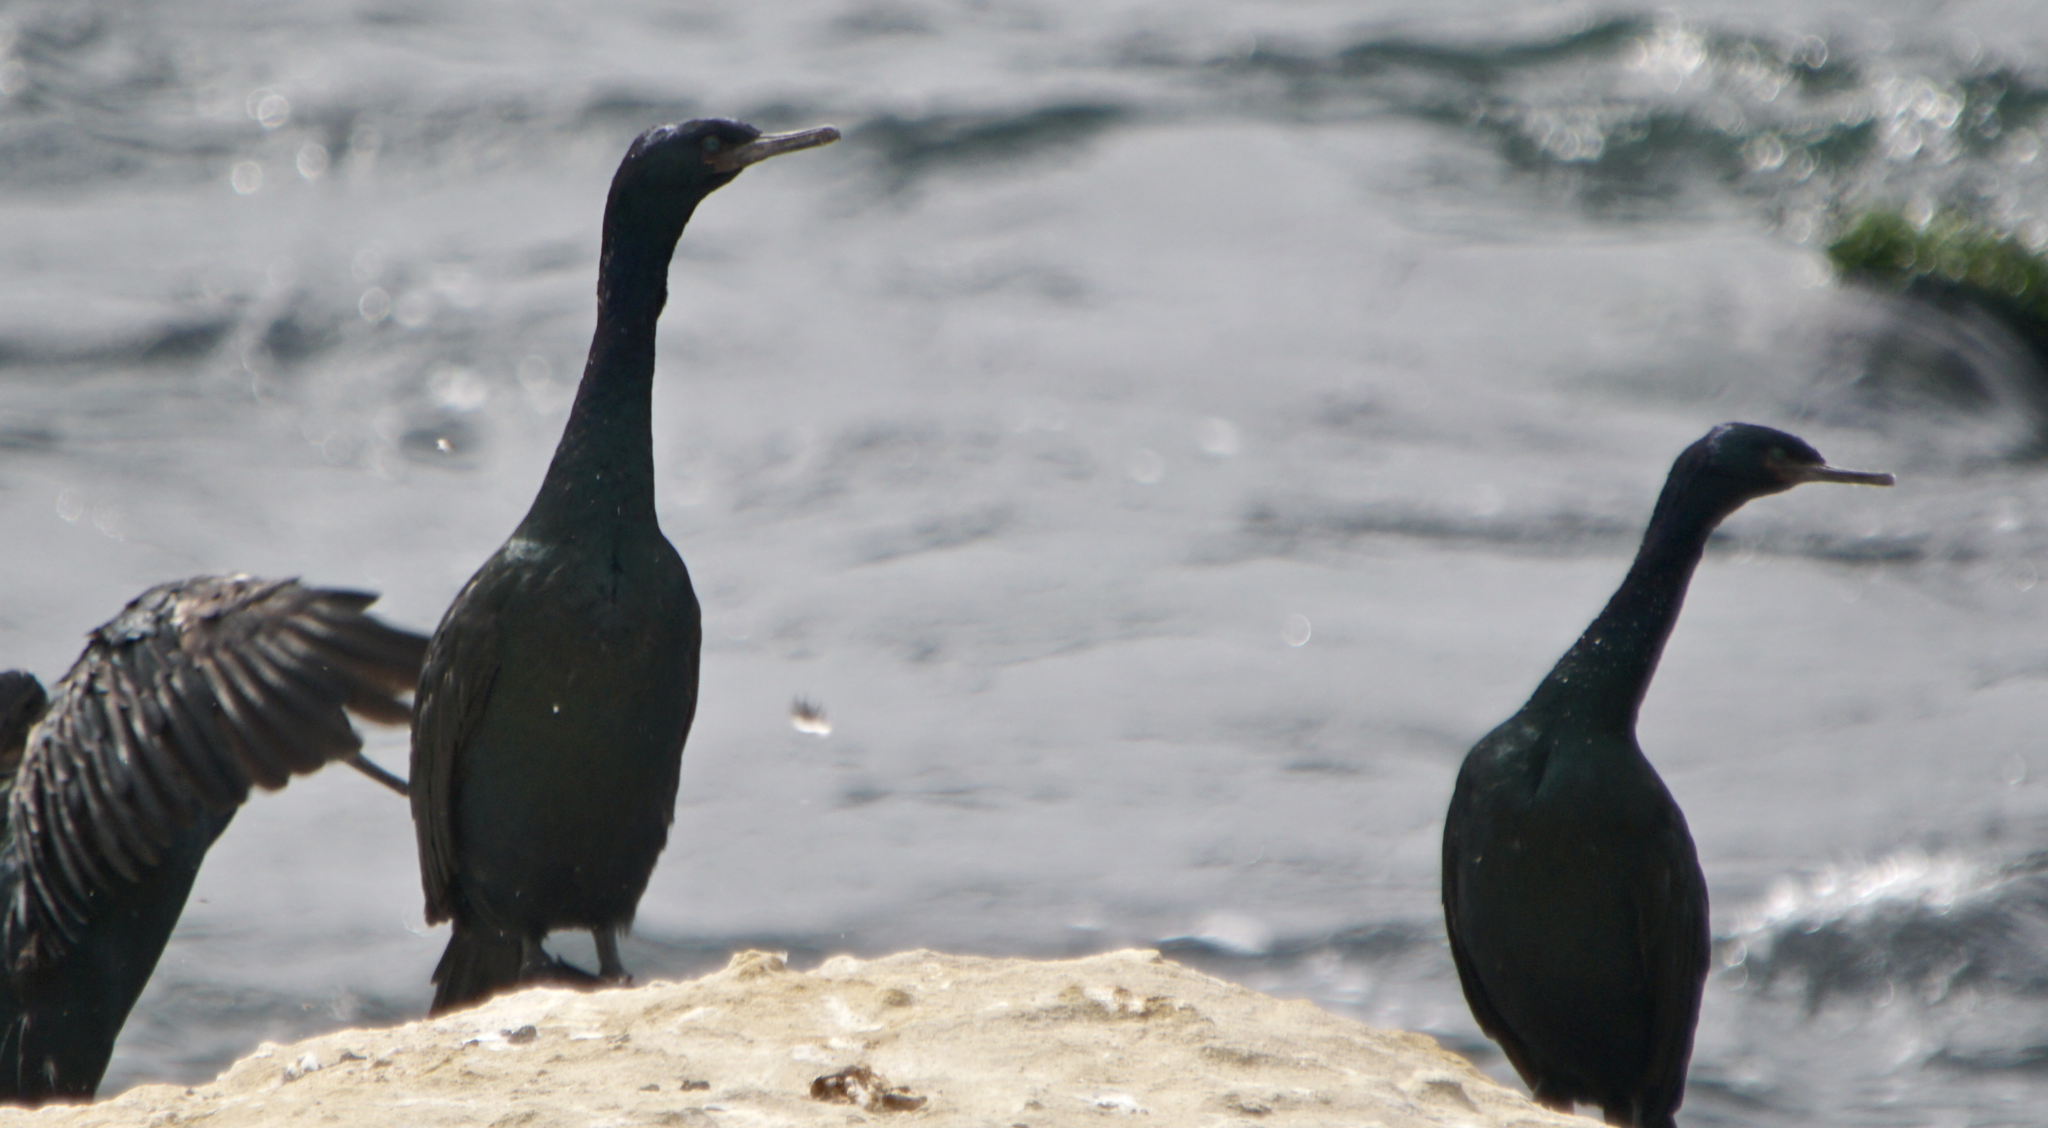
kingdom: Animalia
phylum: Chordata
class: Aves
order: Suliformes
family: Phalacrocoracidae
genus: Phalacrocorax
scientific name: Phalacrocorax pelagicus
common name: Pelagic cormorant
